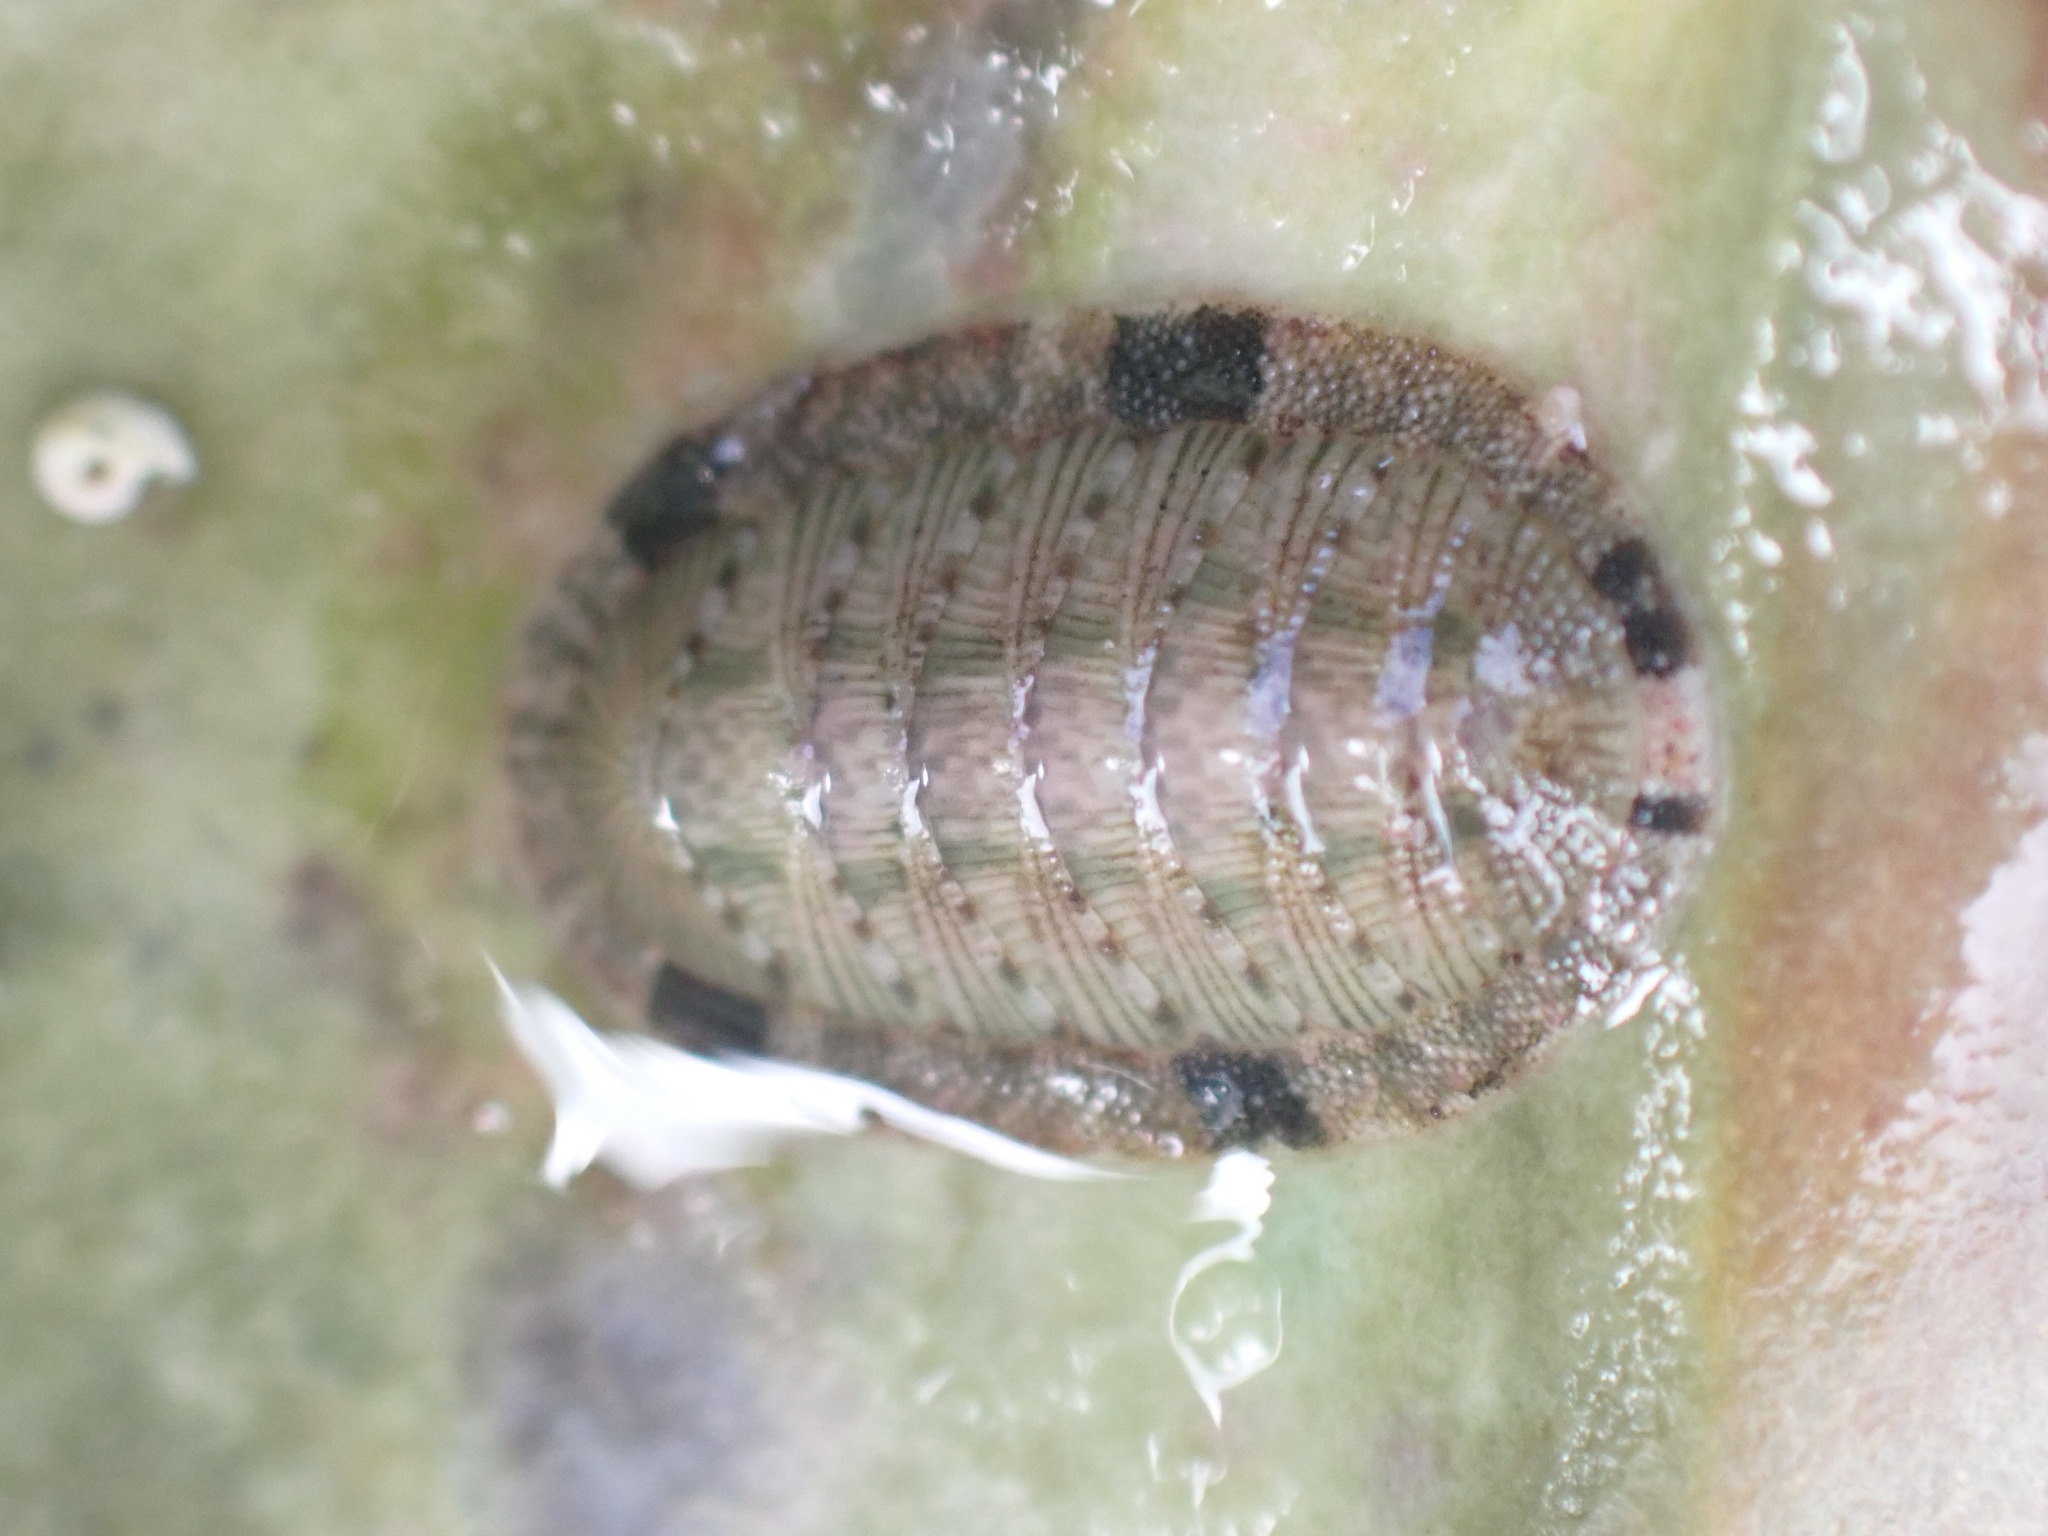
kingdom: Animalia
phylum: Mollusca
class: Polyplacophora
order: Chitonida
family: Chitonidae
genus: Rhyssoplax
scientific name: Rhyssoplax stangeri
